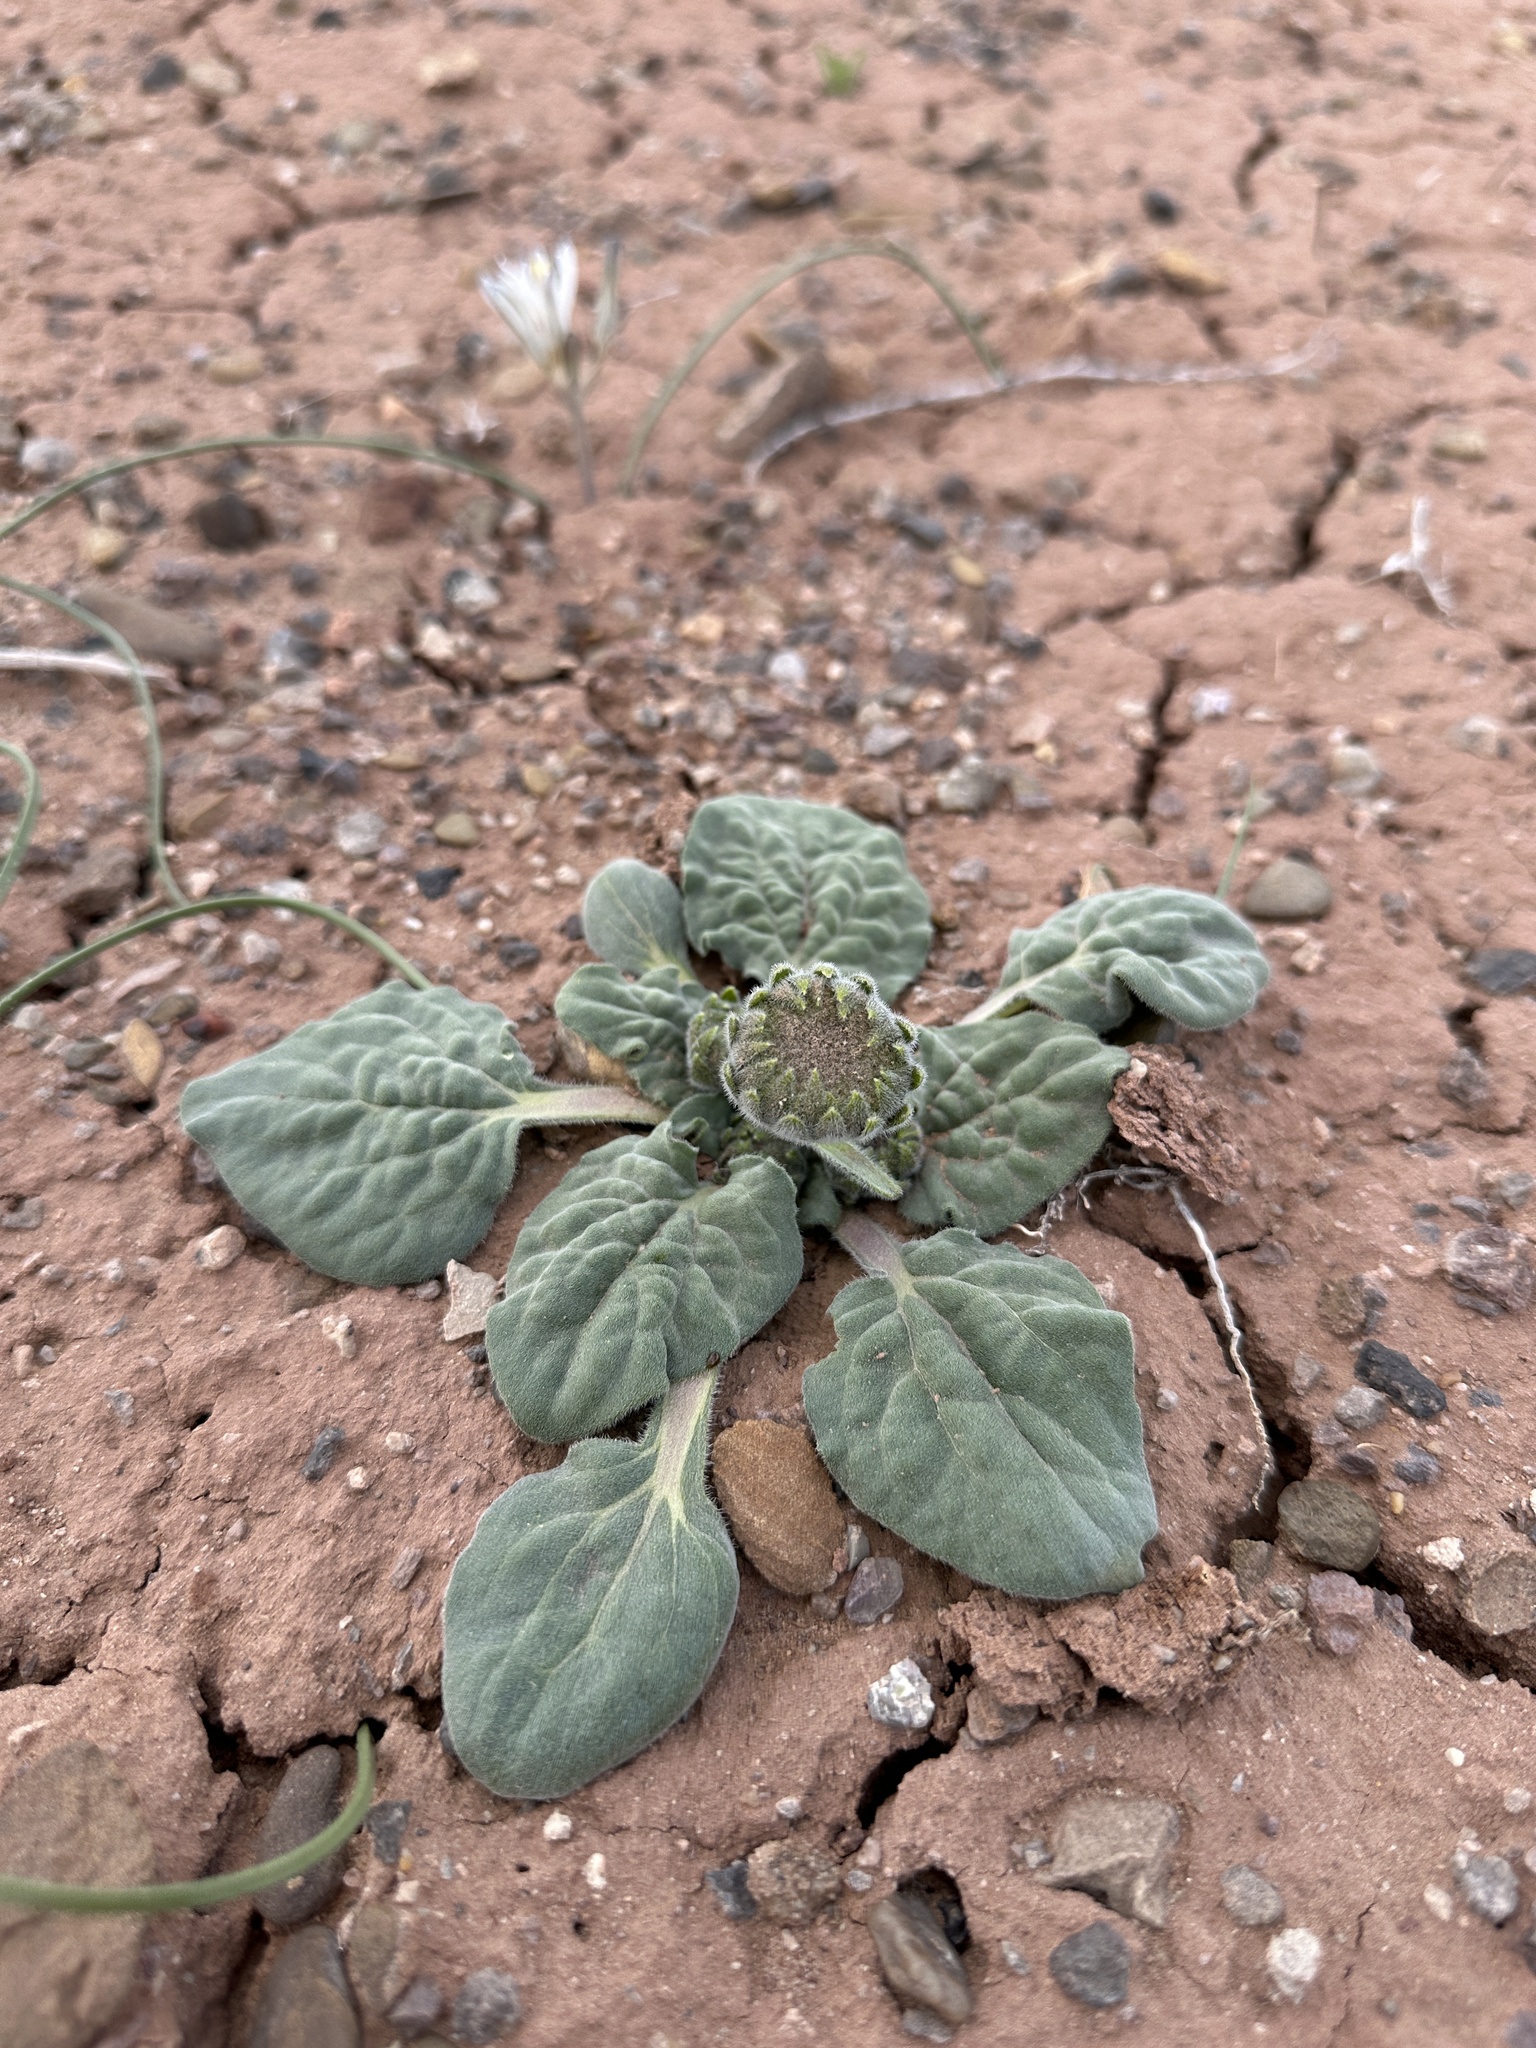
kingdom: Plantae
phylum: Tracheophyta
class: Magnoliopsida
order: Asterales
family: Asteraceae
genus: Encelia
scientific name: Encelia nutans
